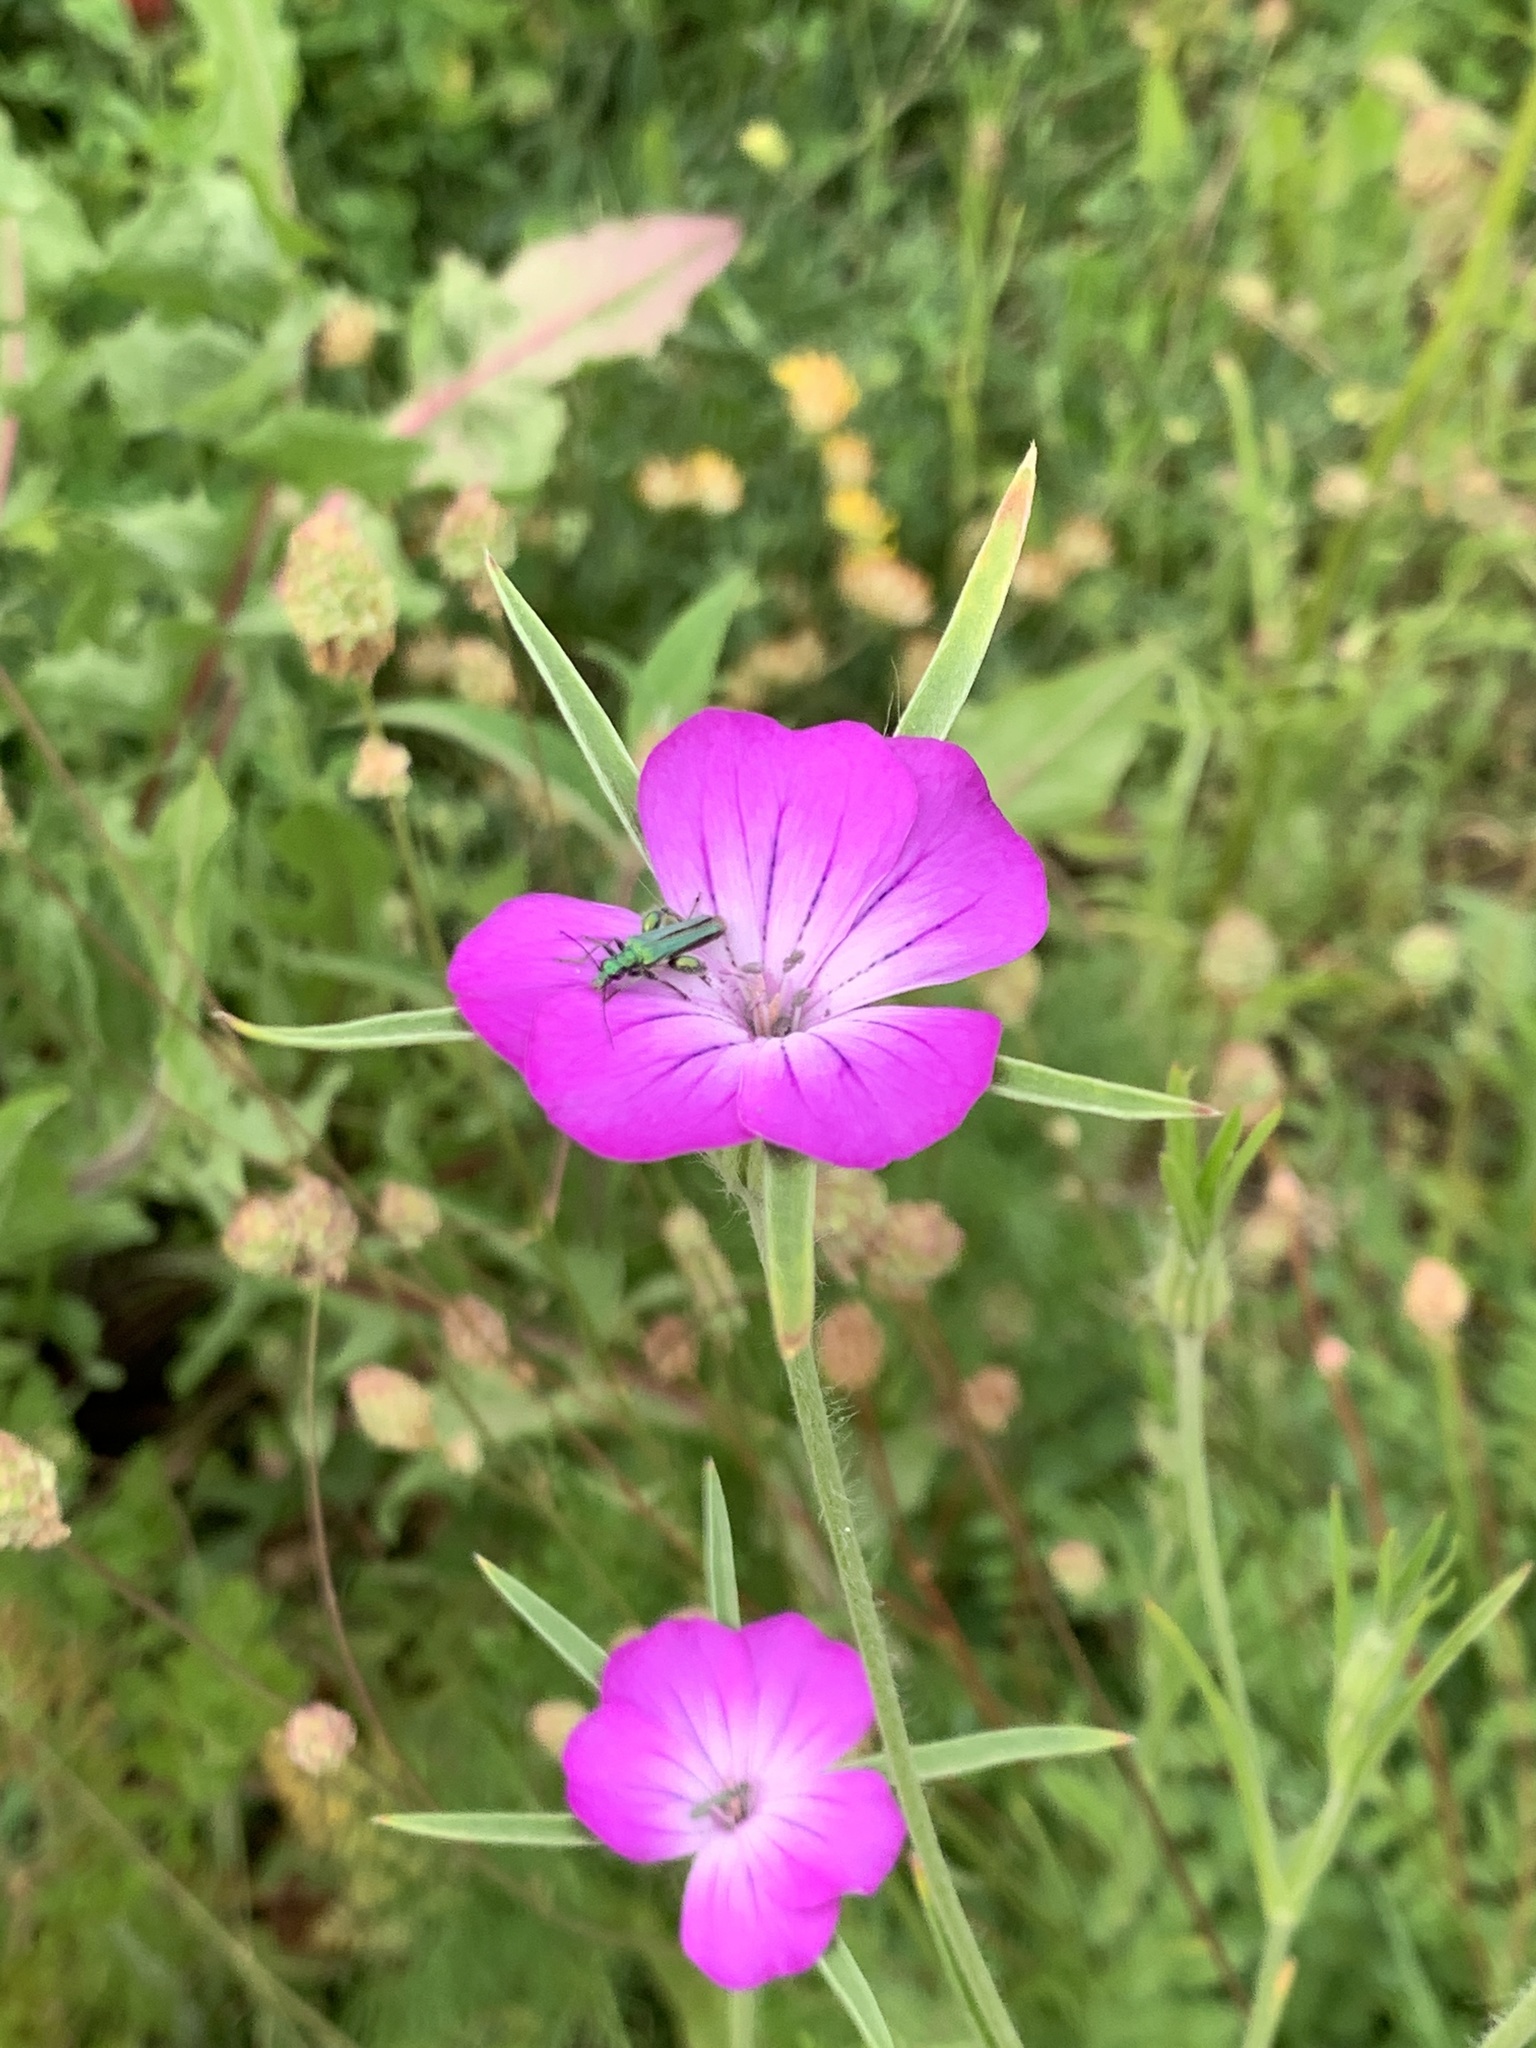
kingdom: Plantae
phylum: Tracheophyta
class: Magnoliopsida
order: Caryophyllales
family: Caryophyllaceae
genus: Agrostemma
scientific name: Agrostemma githago
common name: Common corncockle
